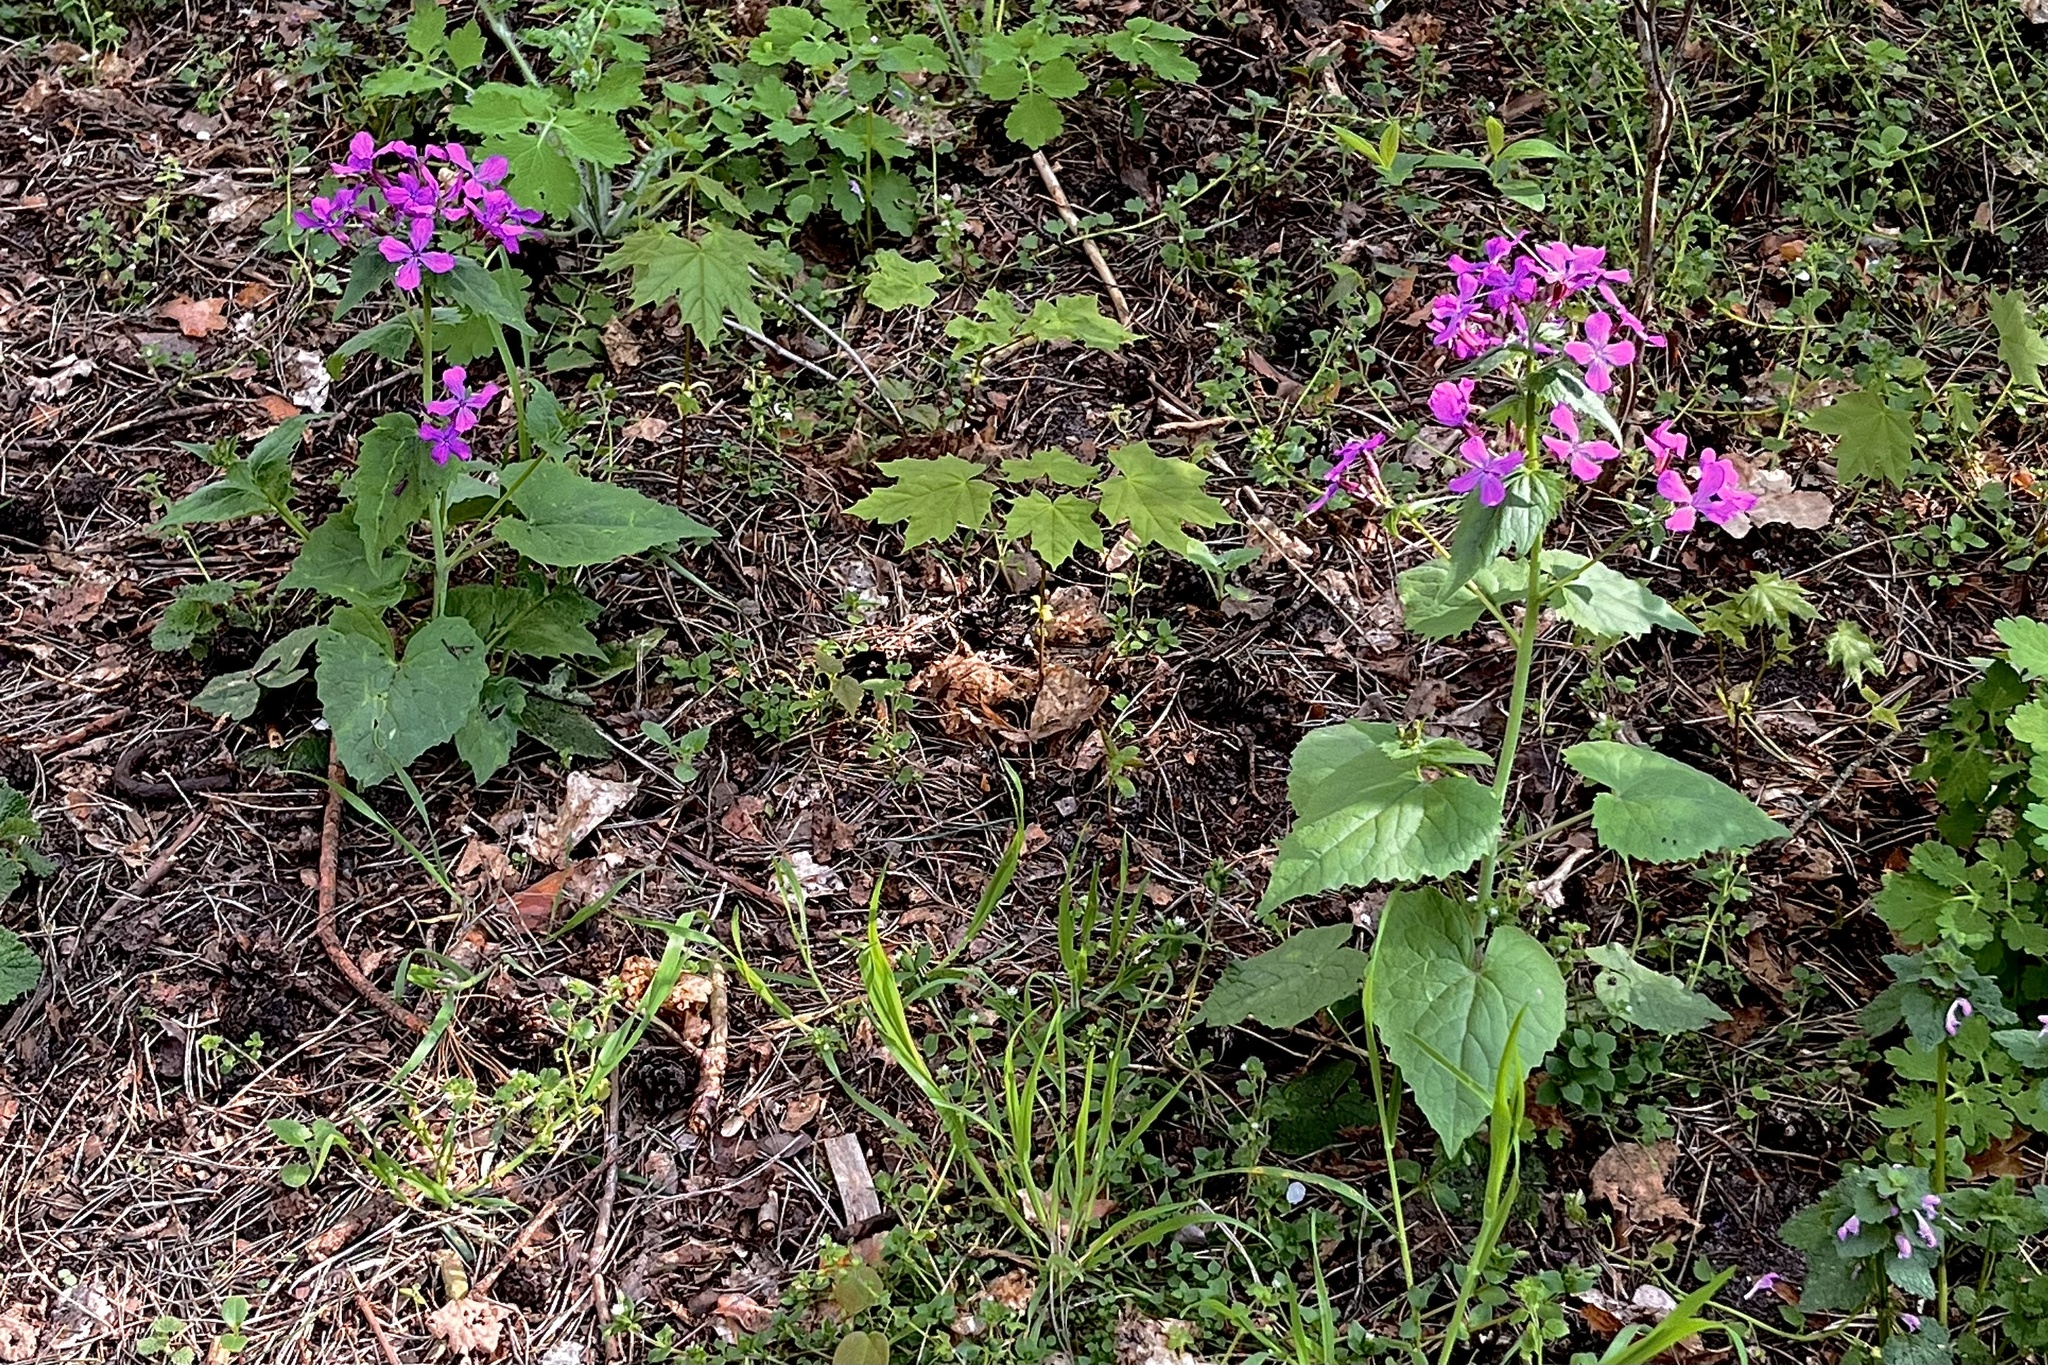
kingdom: Plantae
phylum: Tracheophyta
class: Magnoliopsida
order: Brassicales
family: Brassicaceae
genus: Lunaria
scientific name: Lunaria annua
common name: Honesty
